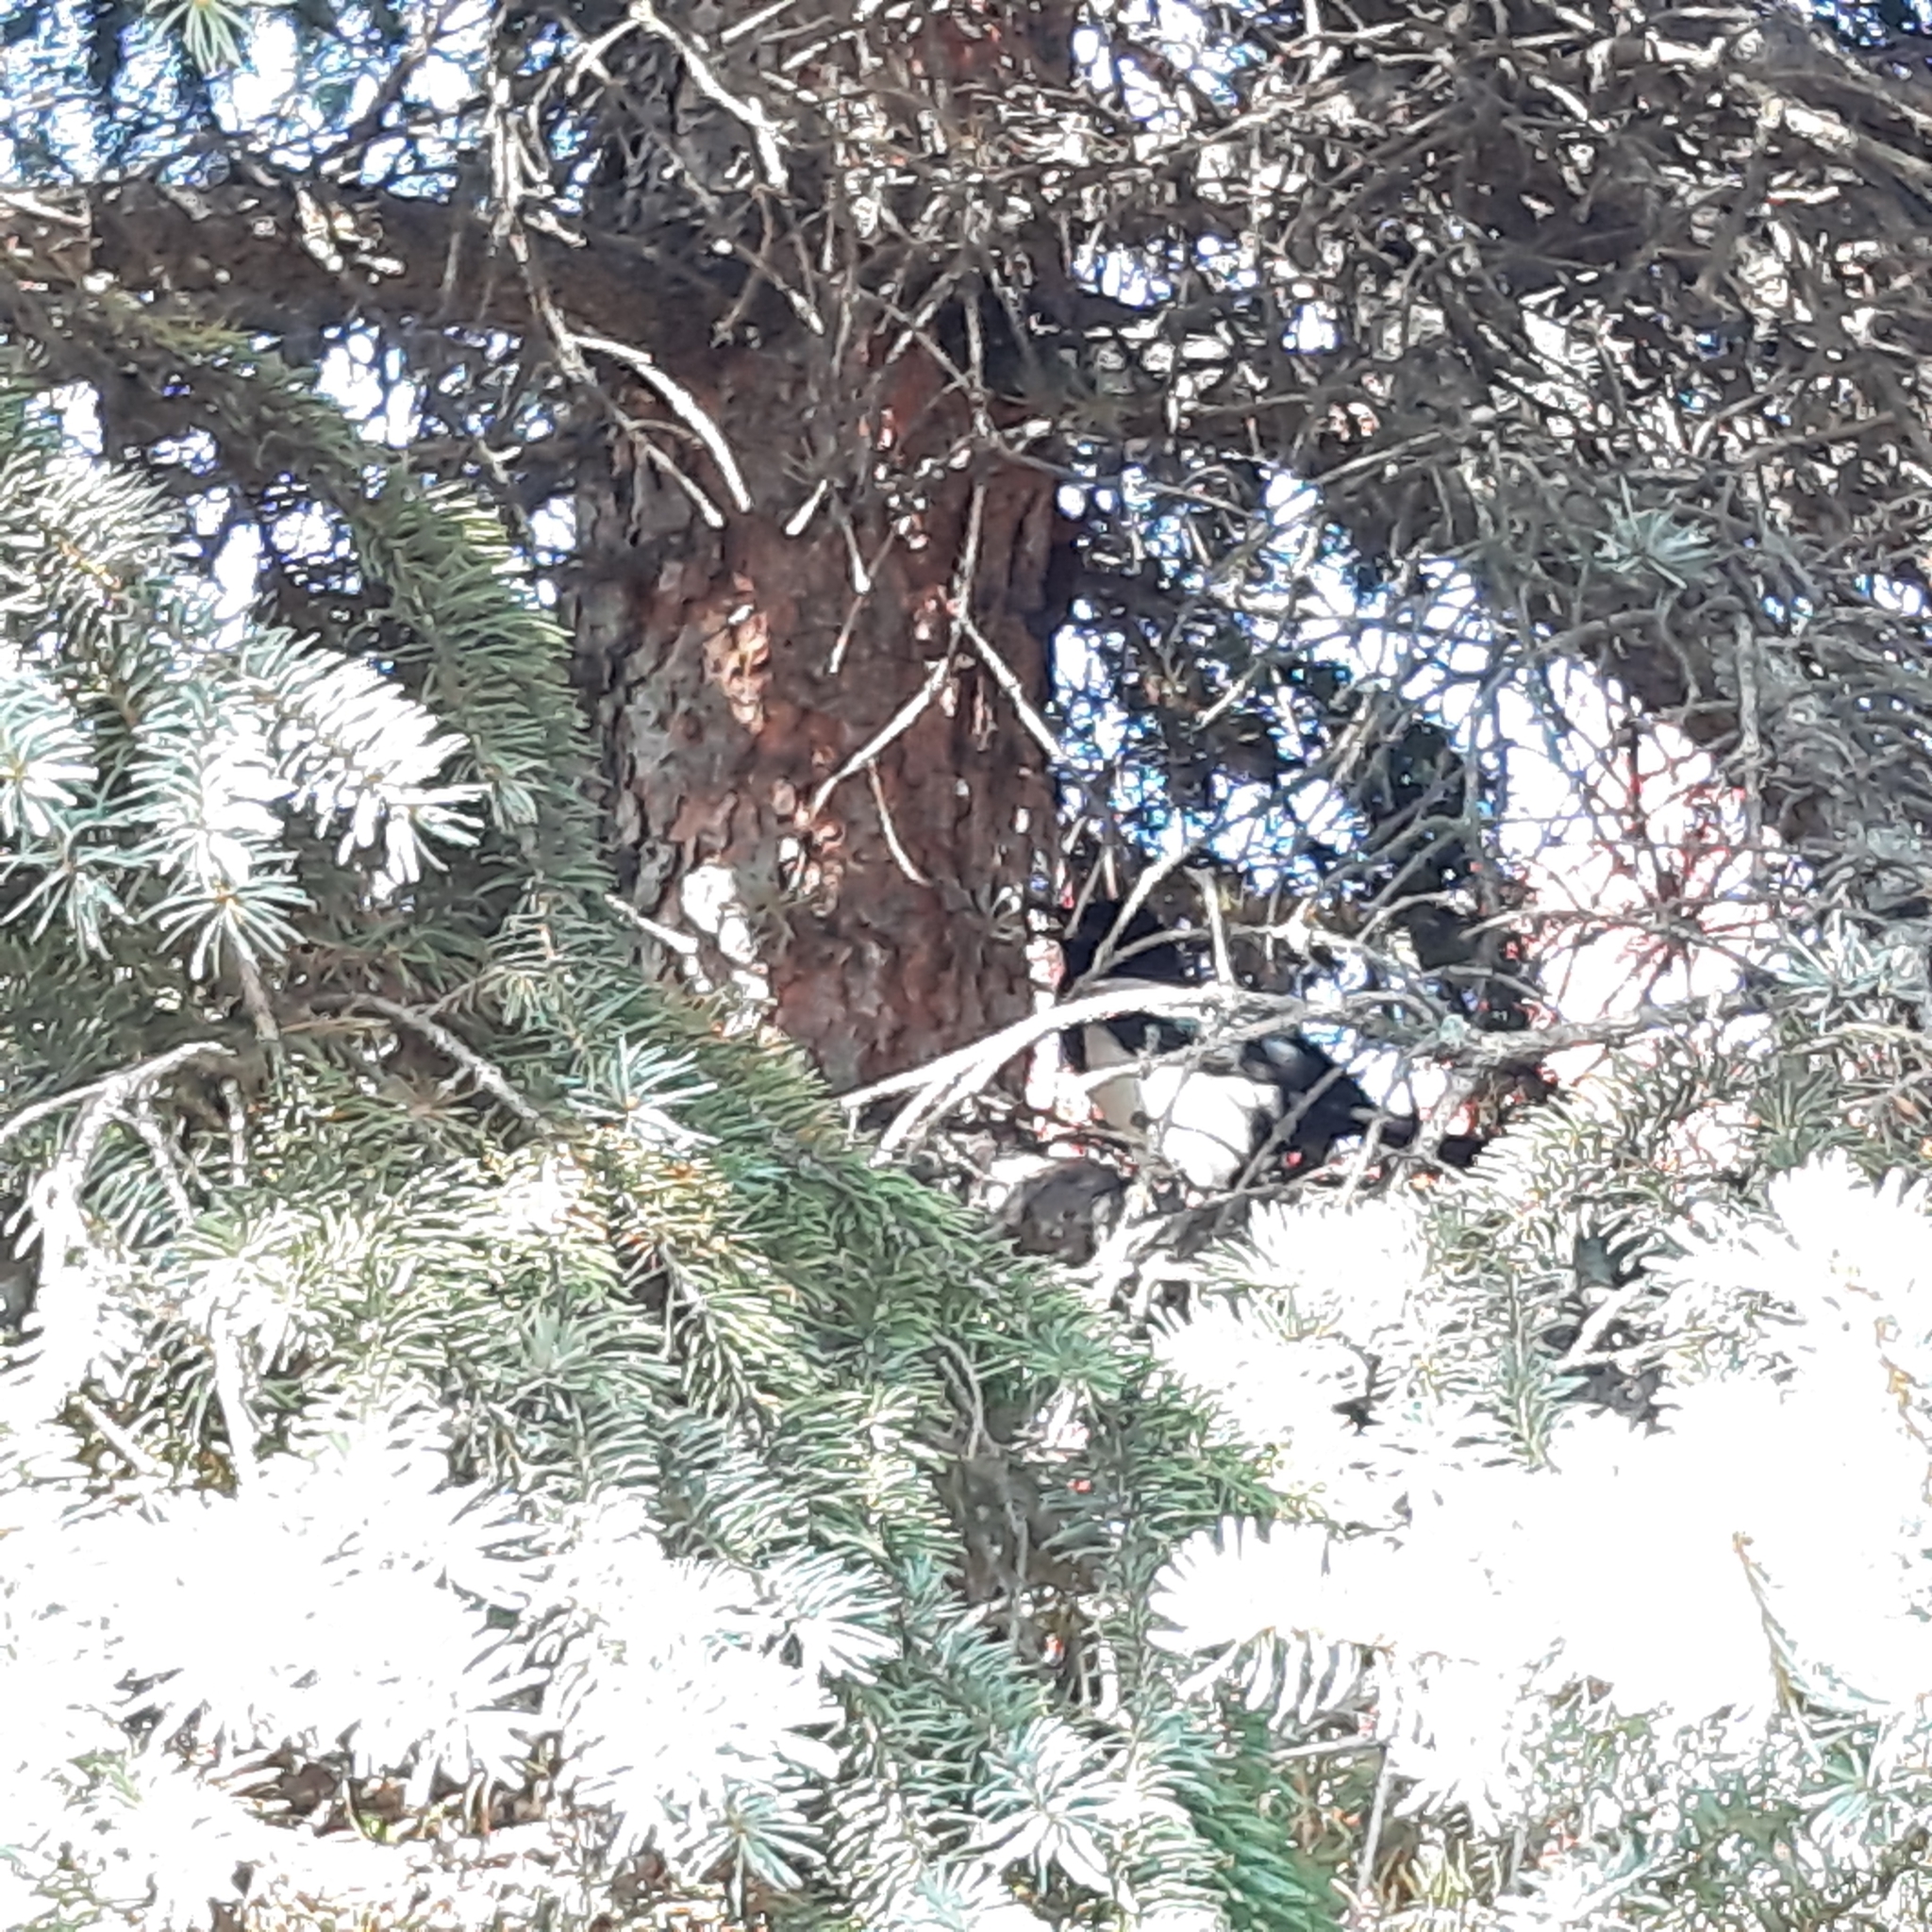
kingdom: Animalia
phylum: Chordata
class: Aves
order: Passeriformes
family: Corvidae
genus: Pica
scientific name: Pica pica
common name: Eurasian magpie
